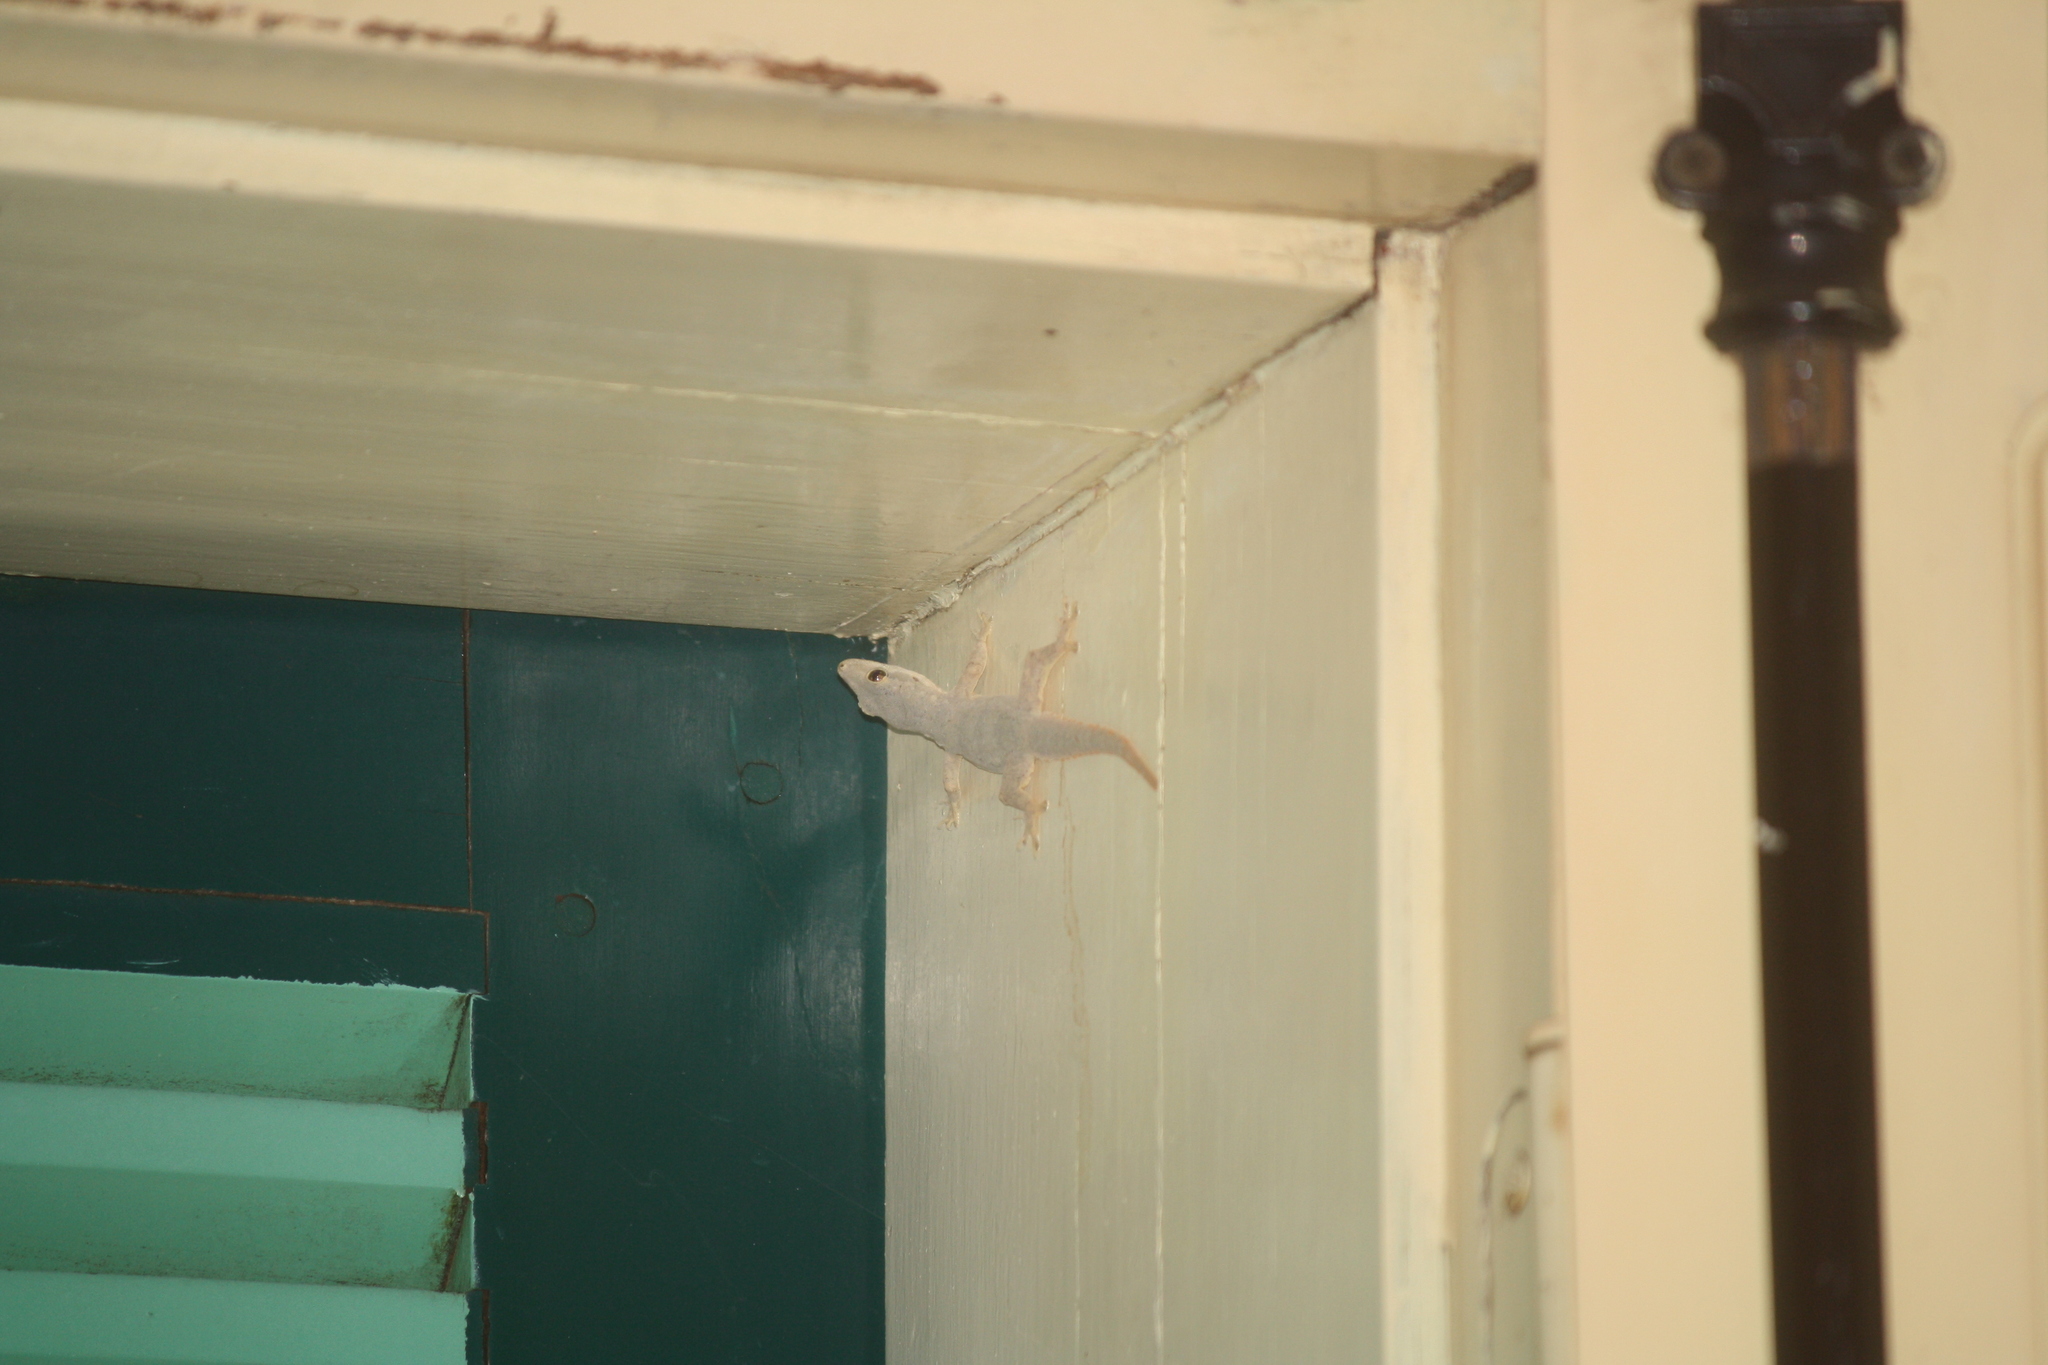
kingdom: Animalia
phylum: Chordata
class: Squamata
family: Gekkonidae
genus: Hemidactylus
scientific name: Hemidactylus platyurus
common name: Flat-tailed house gecko
